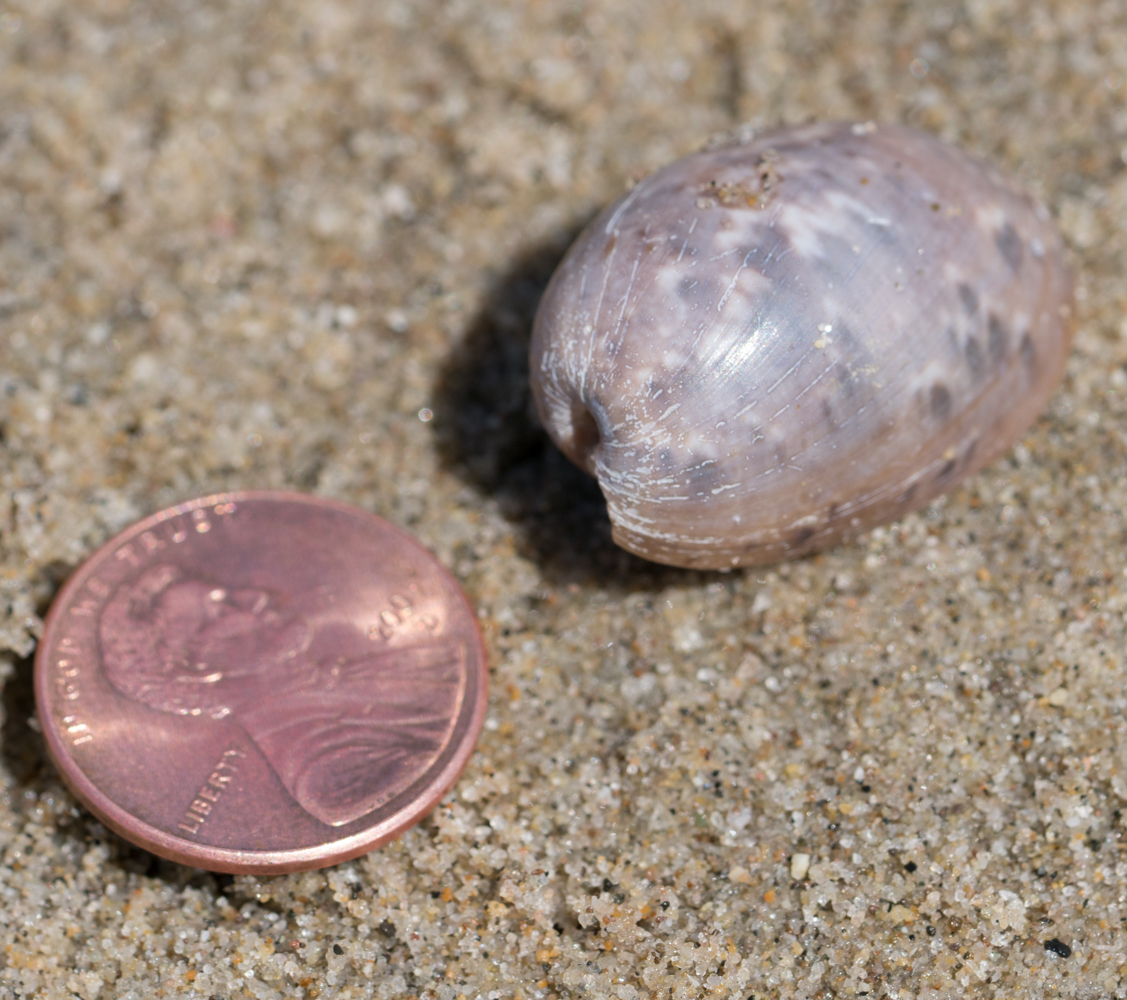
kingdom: Animalia
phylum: Mollusca
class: Gastropoda
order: Cephalaspidea
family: Bullidae
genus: Bulla
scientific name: Bulla gouldiana
